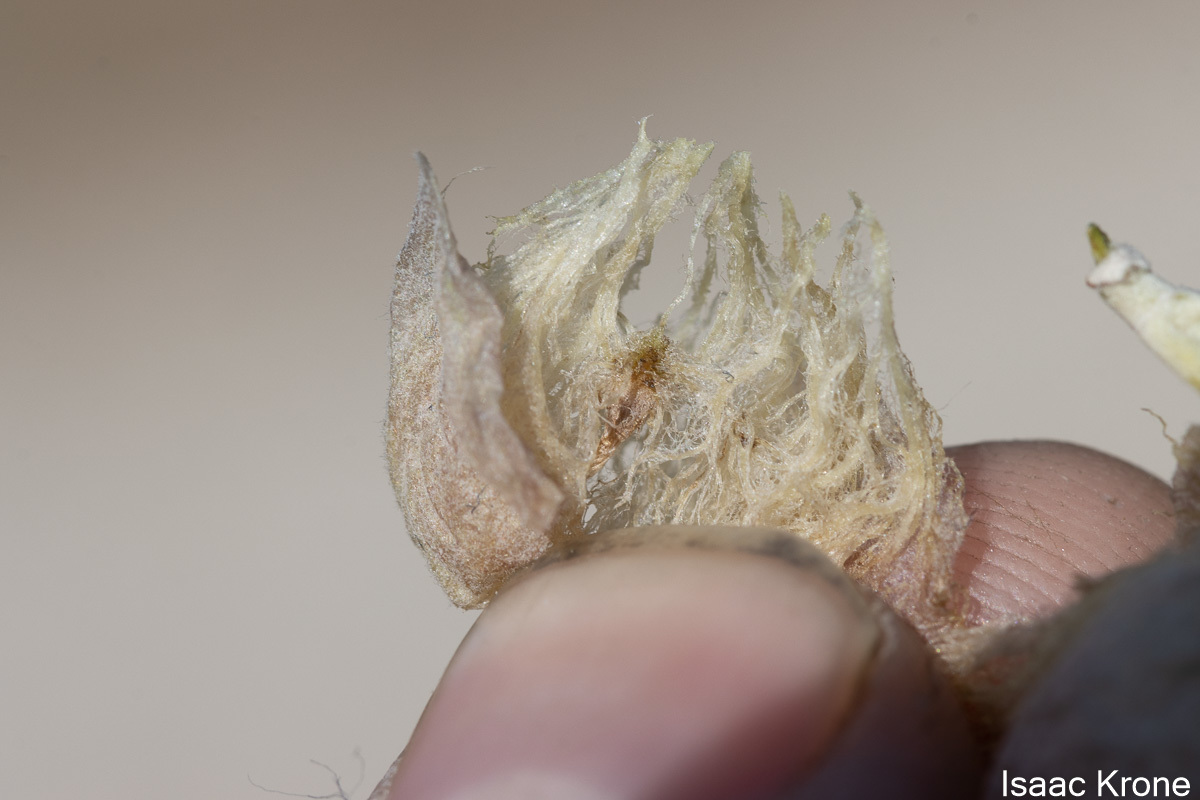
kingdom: Animalia
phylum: Arthropoda
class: Insecta
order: Diptera
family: Cecidomyiidae
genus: Rhopalomyia
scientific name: Rhopalomyia pomum
